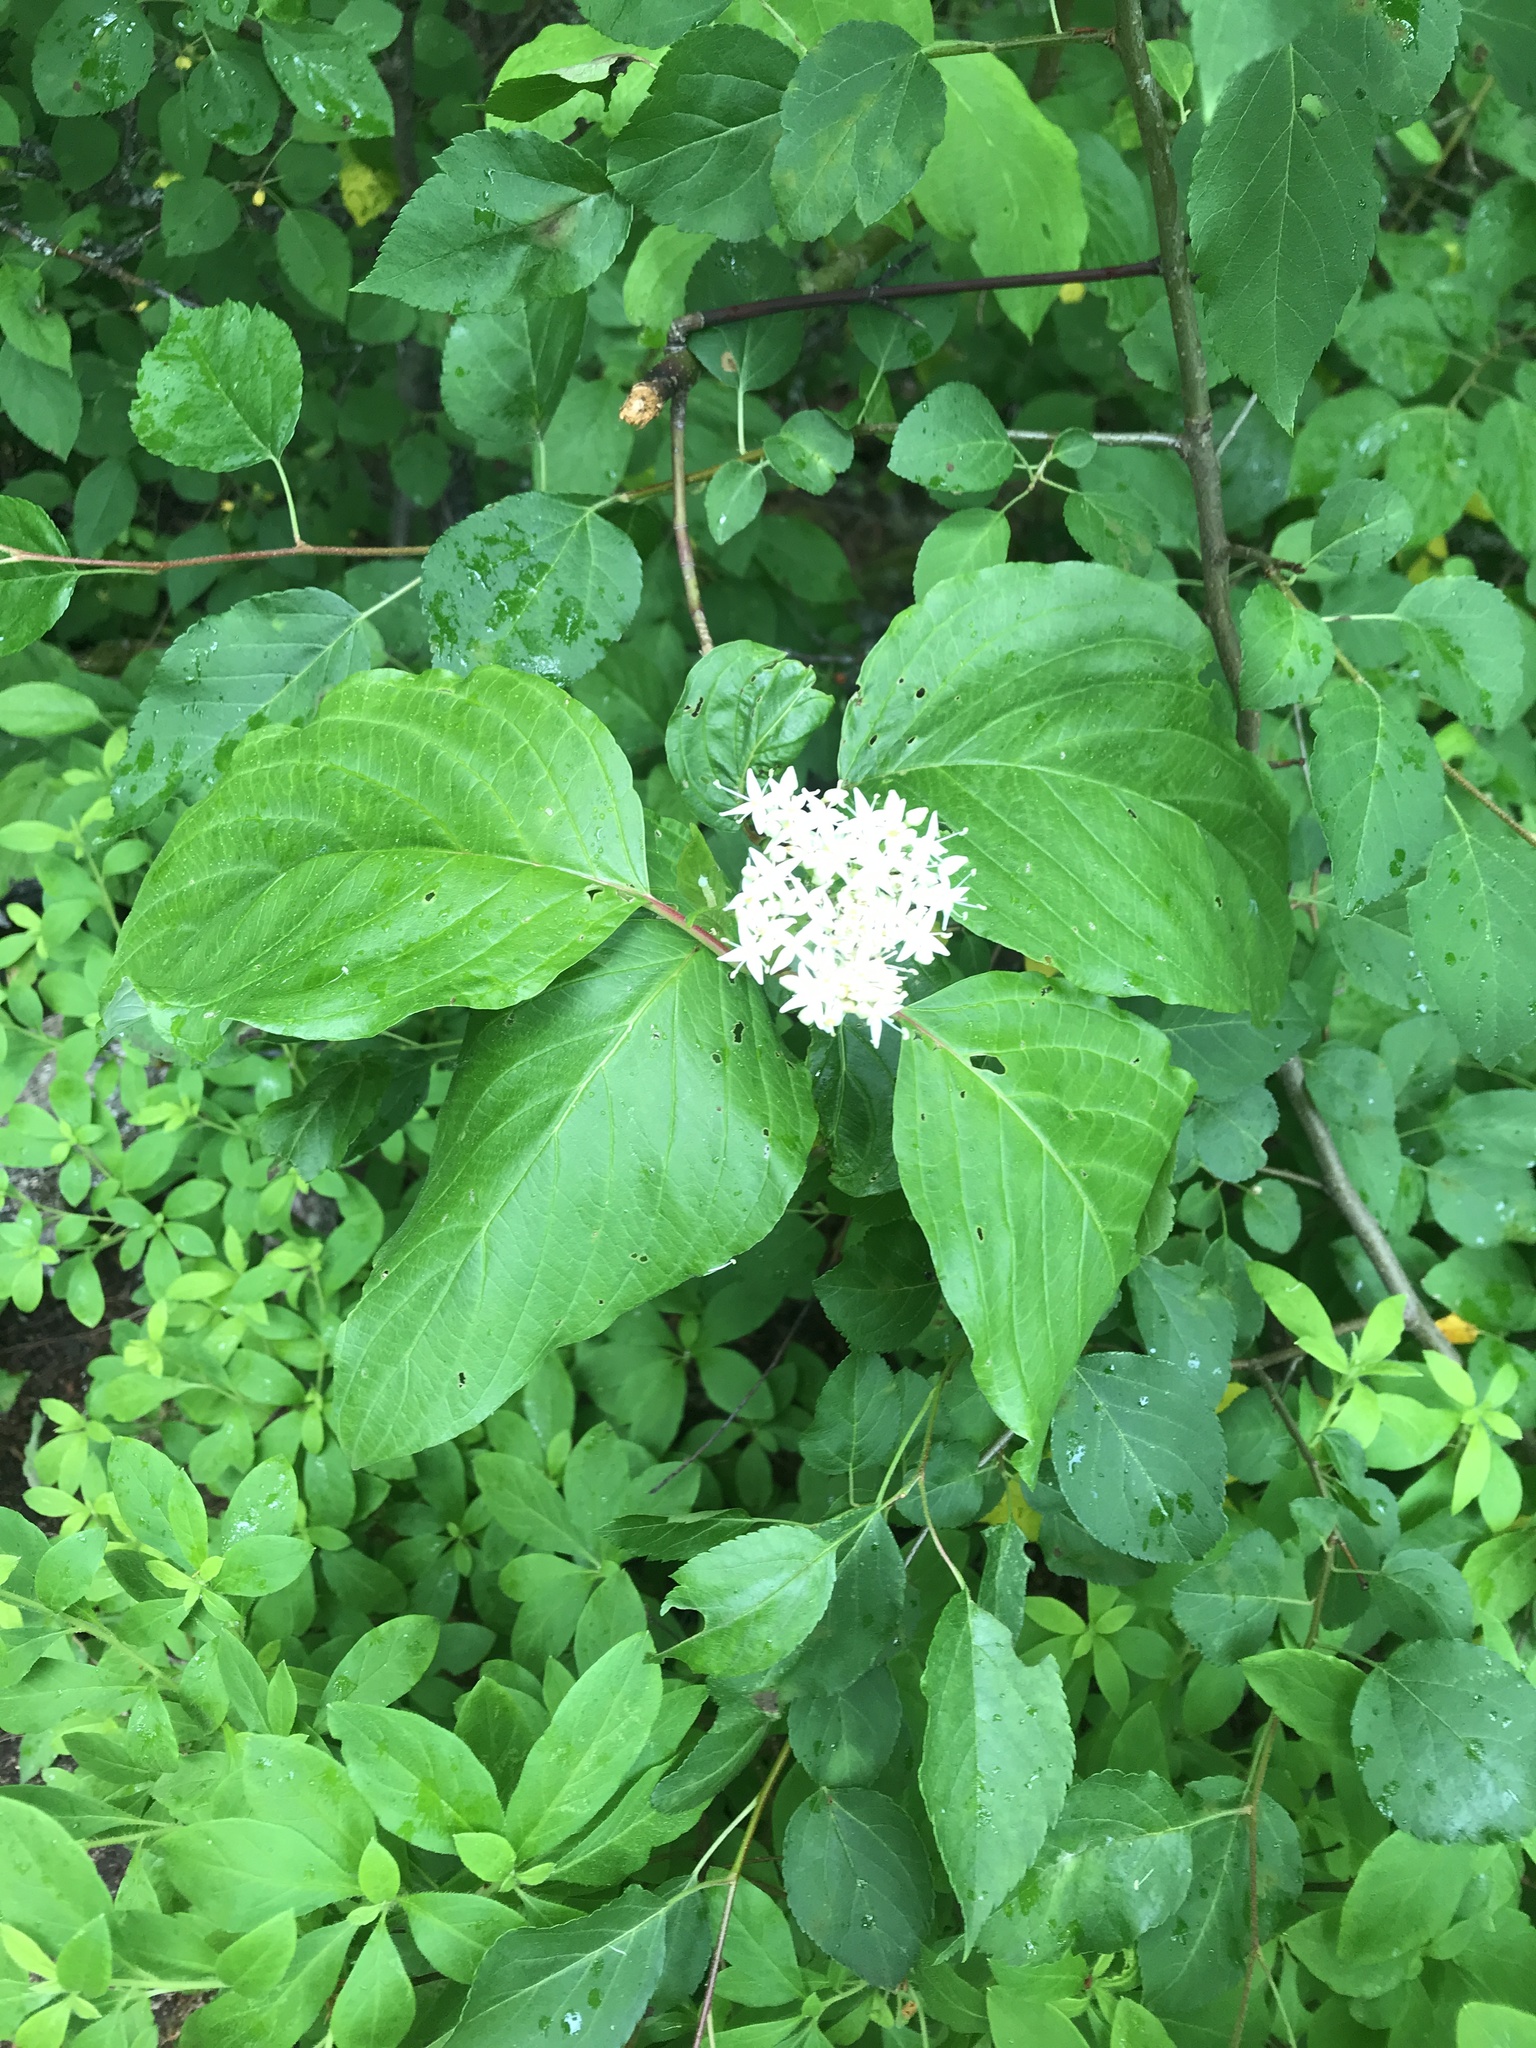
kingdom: Plantae
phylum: Tracheophyta
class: Magnoliopsida
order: Cornales
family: Cornaceae
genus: Cornus
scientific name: Cornus sericea
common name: Red-osier dogwood
